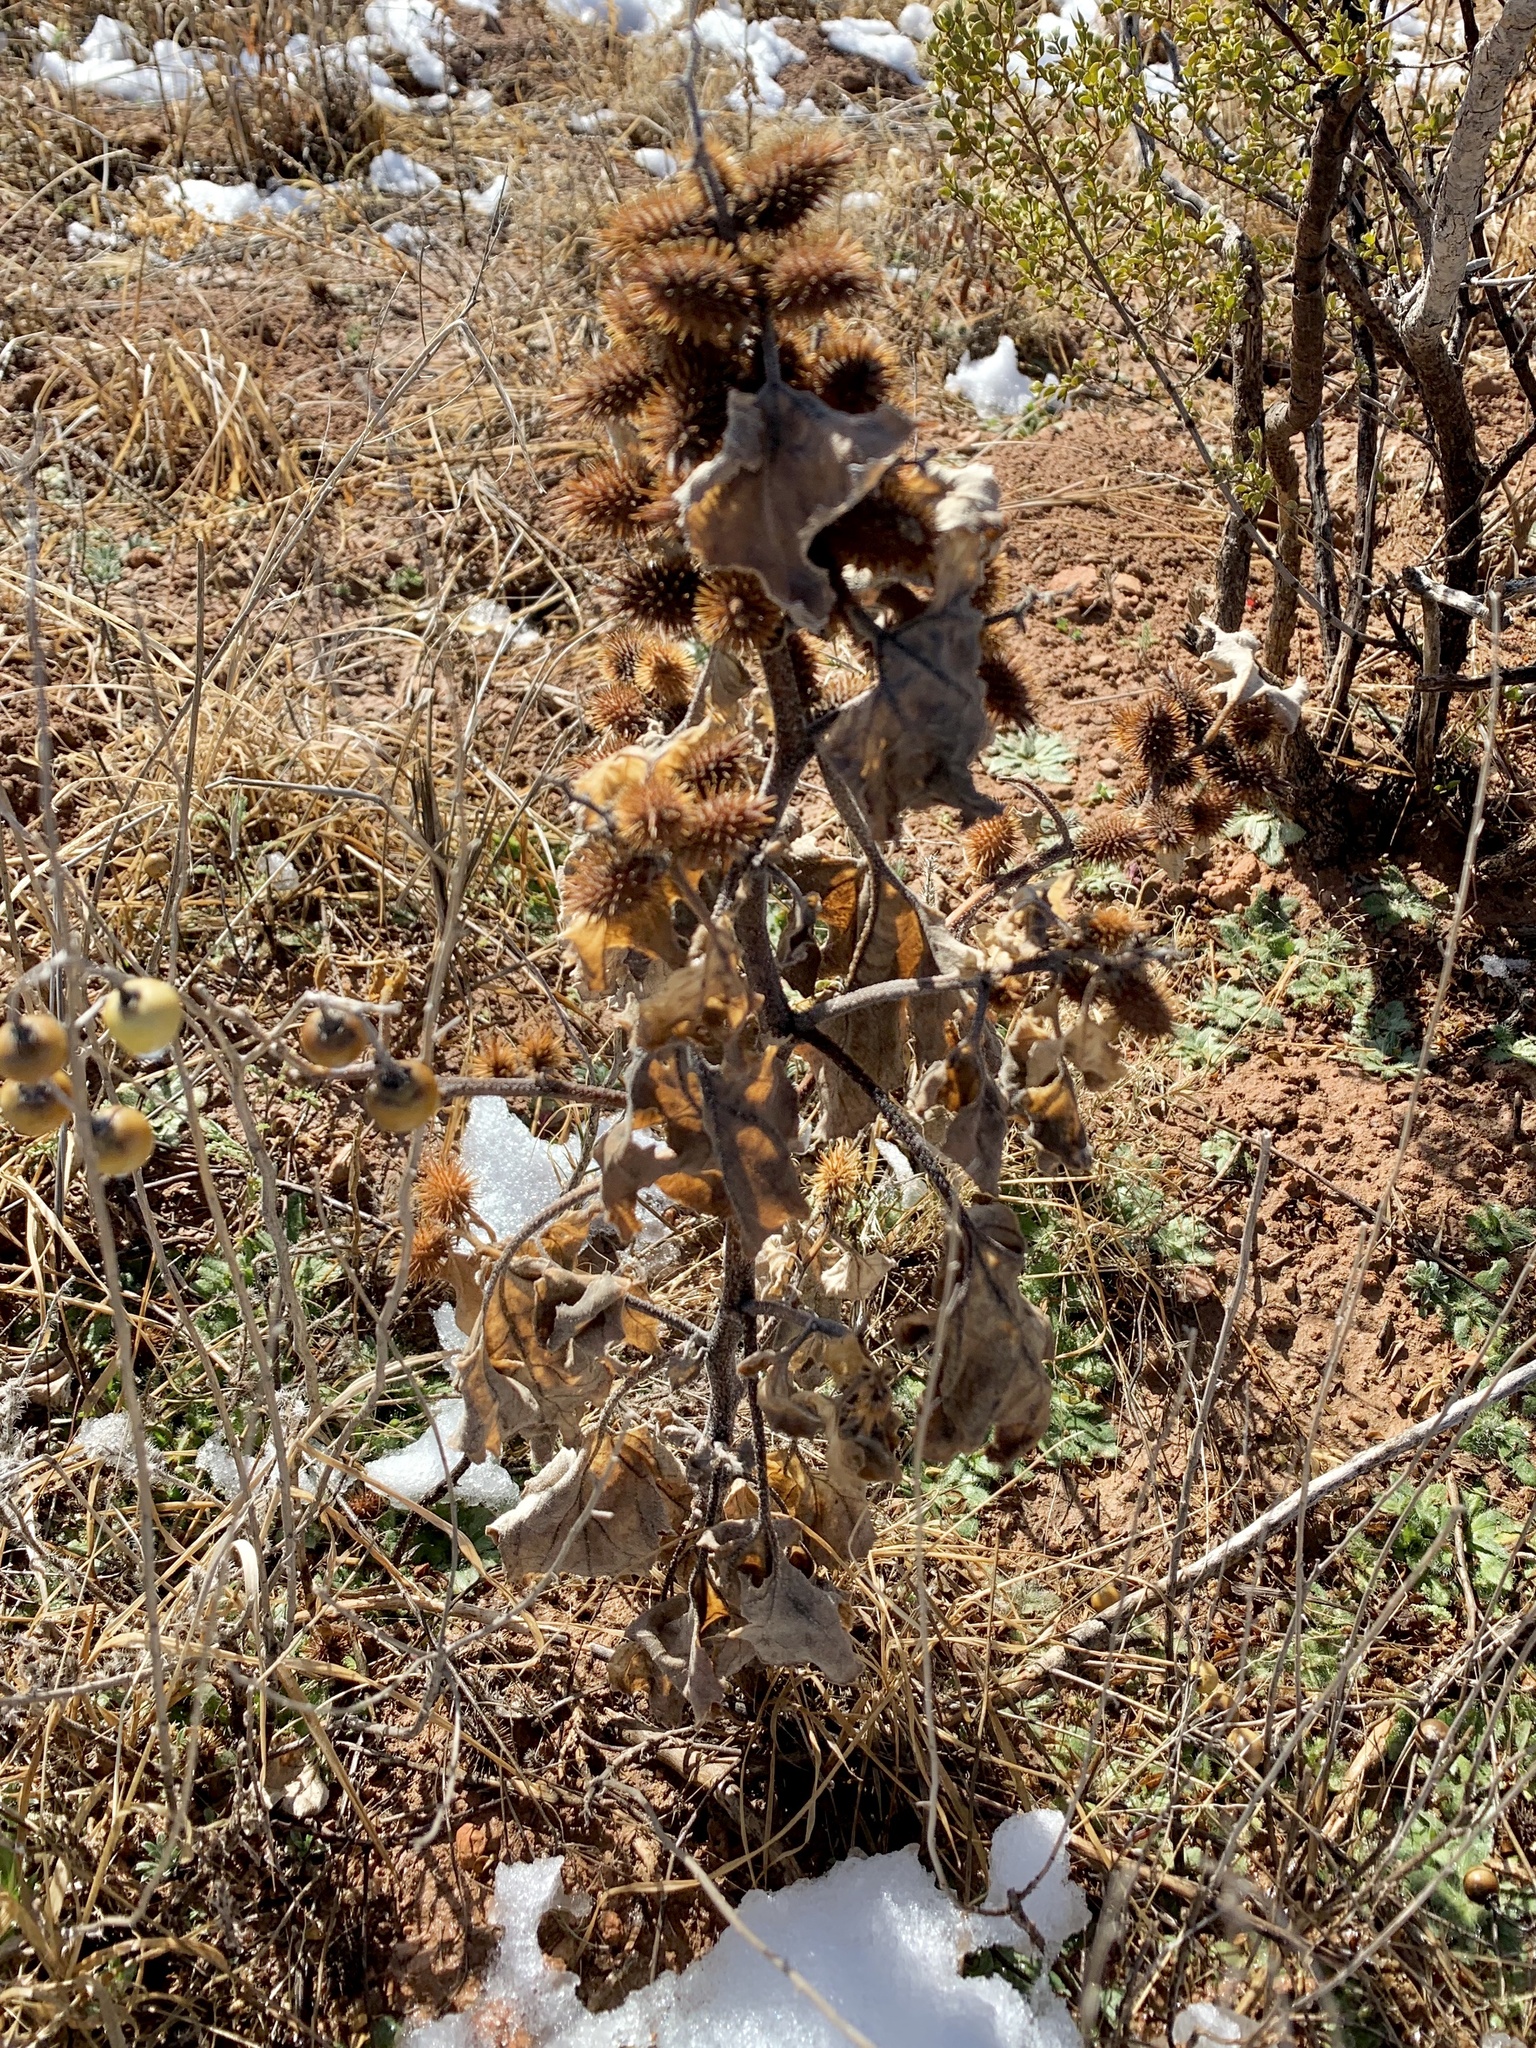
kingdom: Plantae
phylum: Tracheophyta
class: Magnoliopsida
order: Asterales
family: Asteraceae
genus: Xanthium
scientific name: Xanthium strumarium
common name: Rough cocklebur
